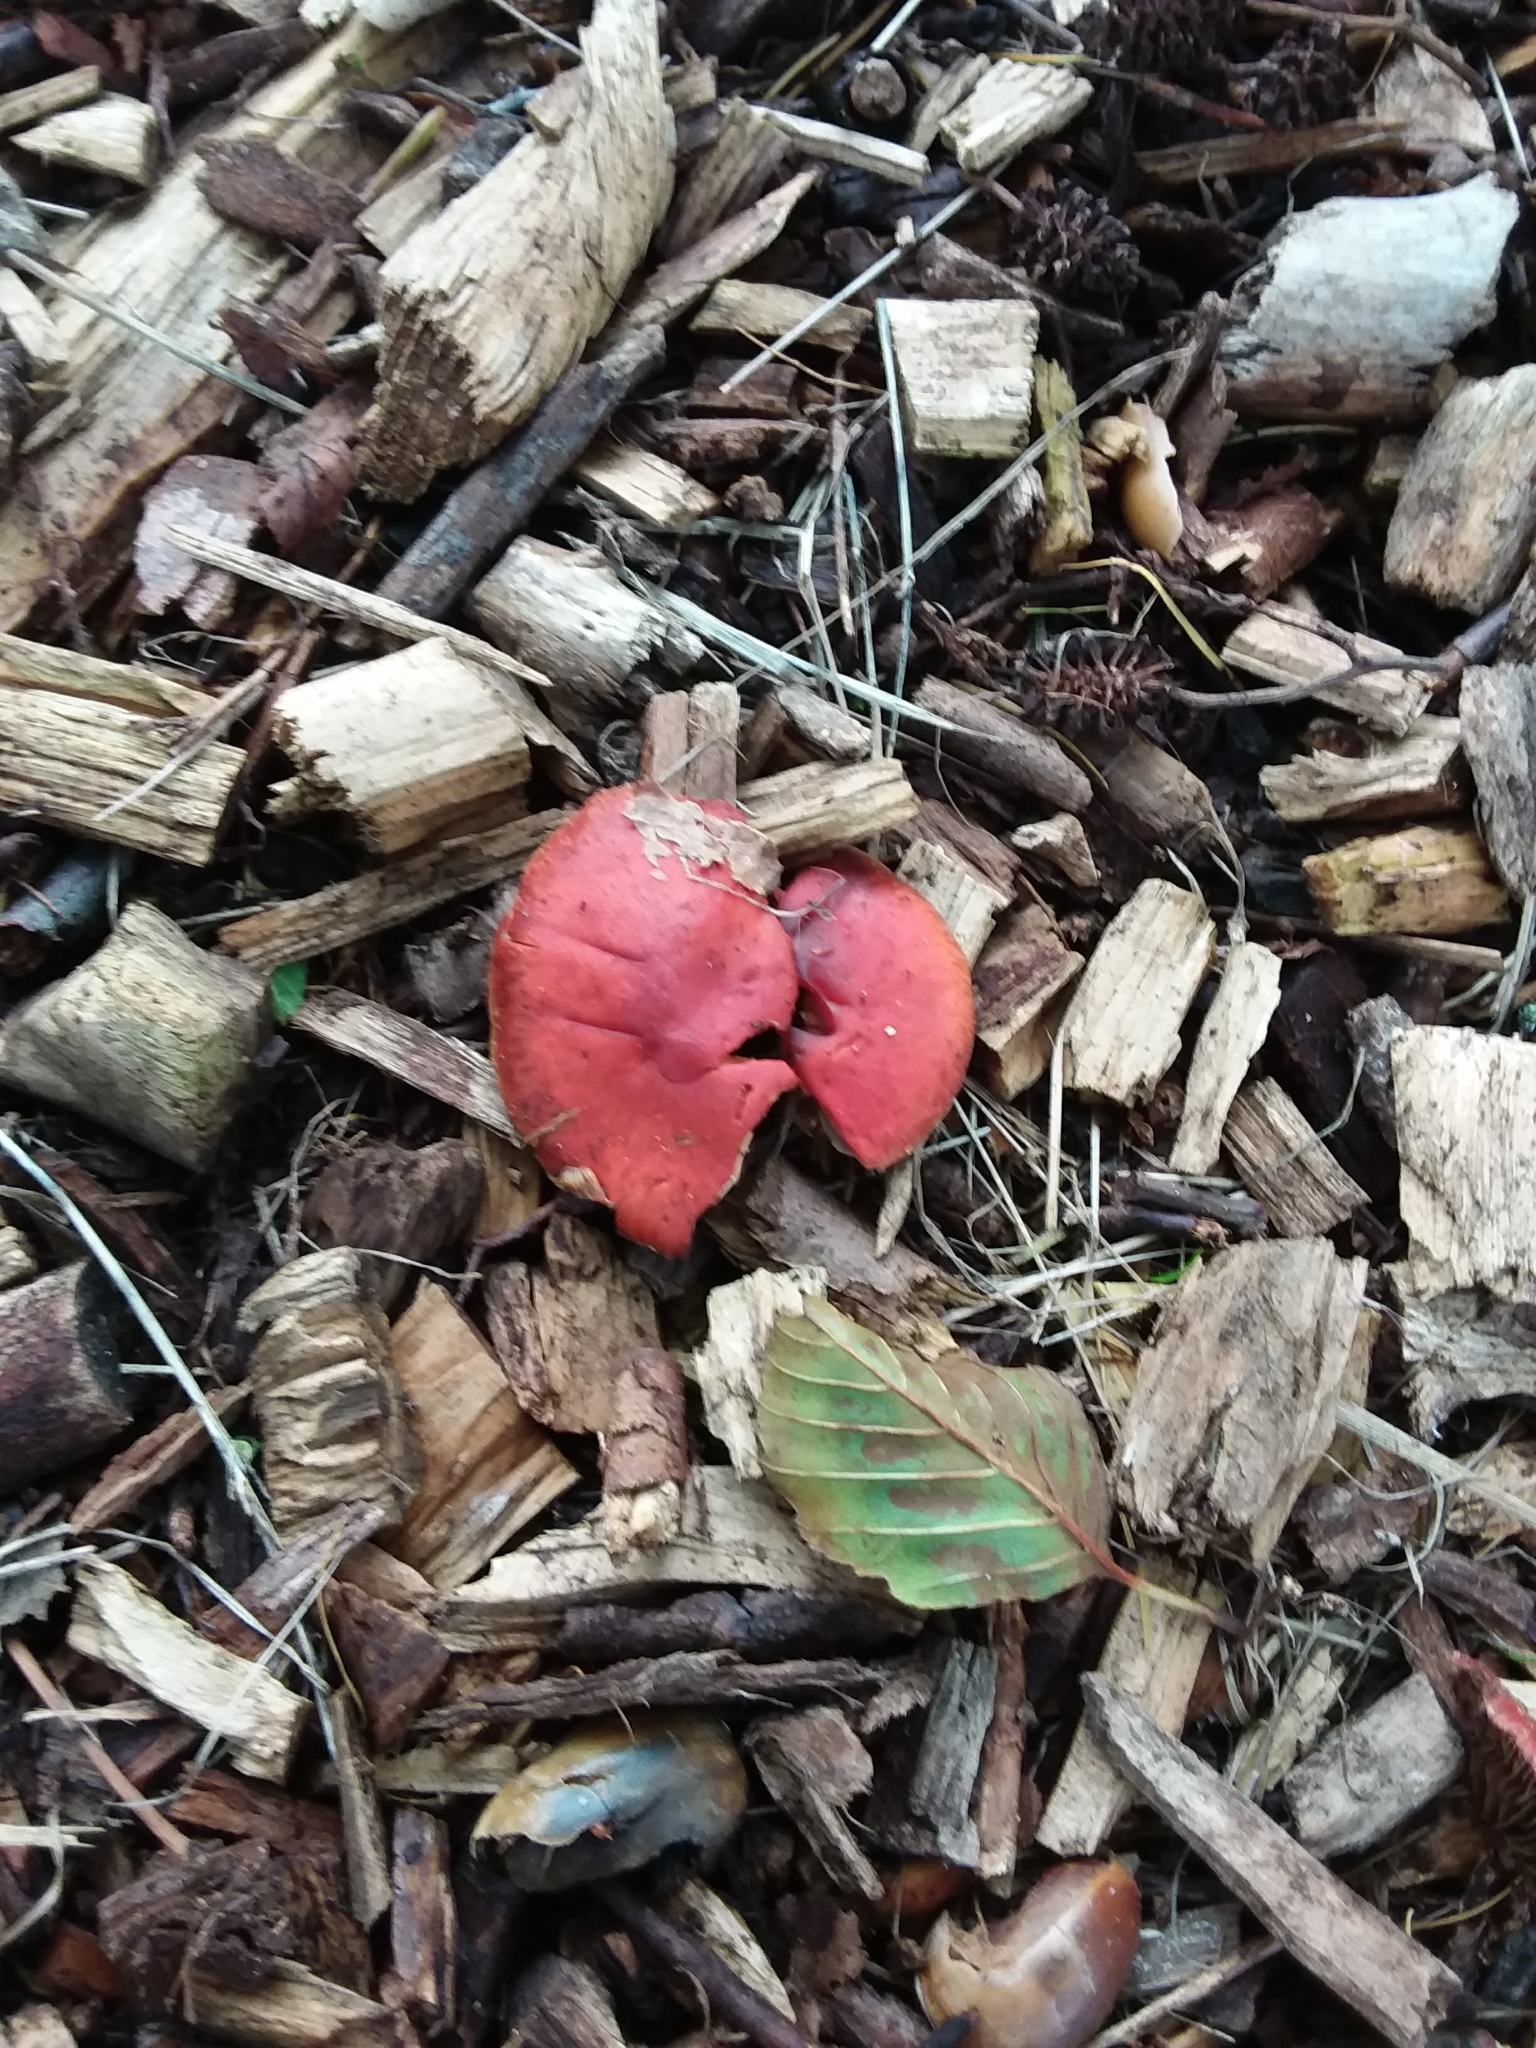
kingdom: Fungi
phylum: Basidiomycota
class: Agaricomycetes
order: Agaricales
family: Strophariaceae
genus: Leratiomyces
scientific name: Leratiomyces ceres
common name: Redlead roundhead
